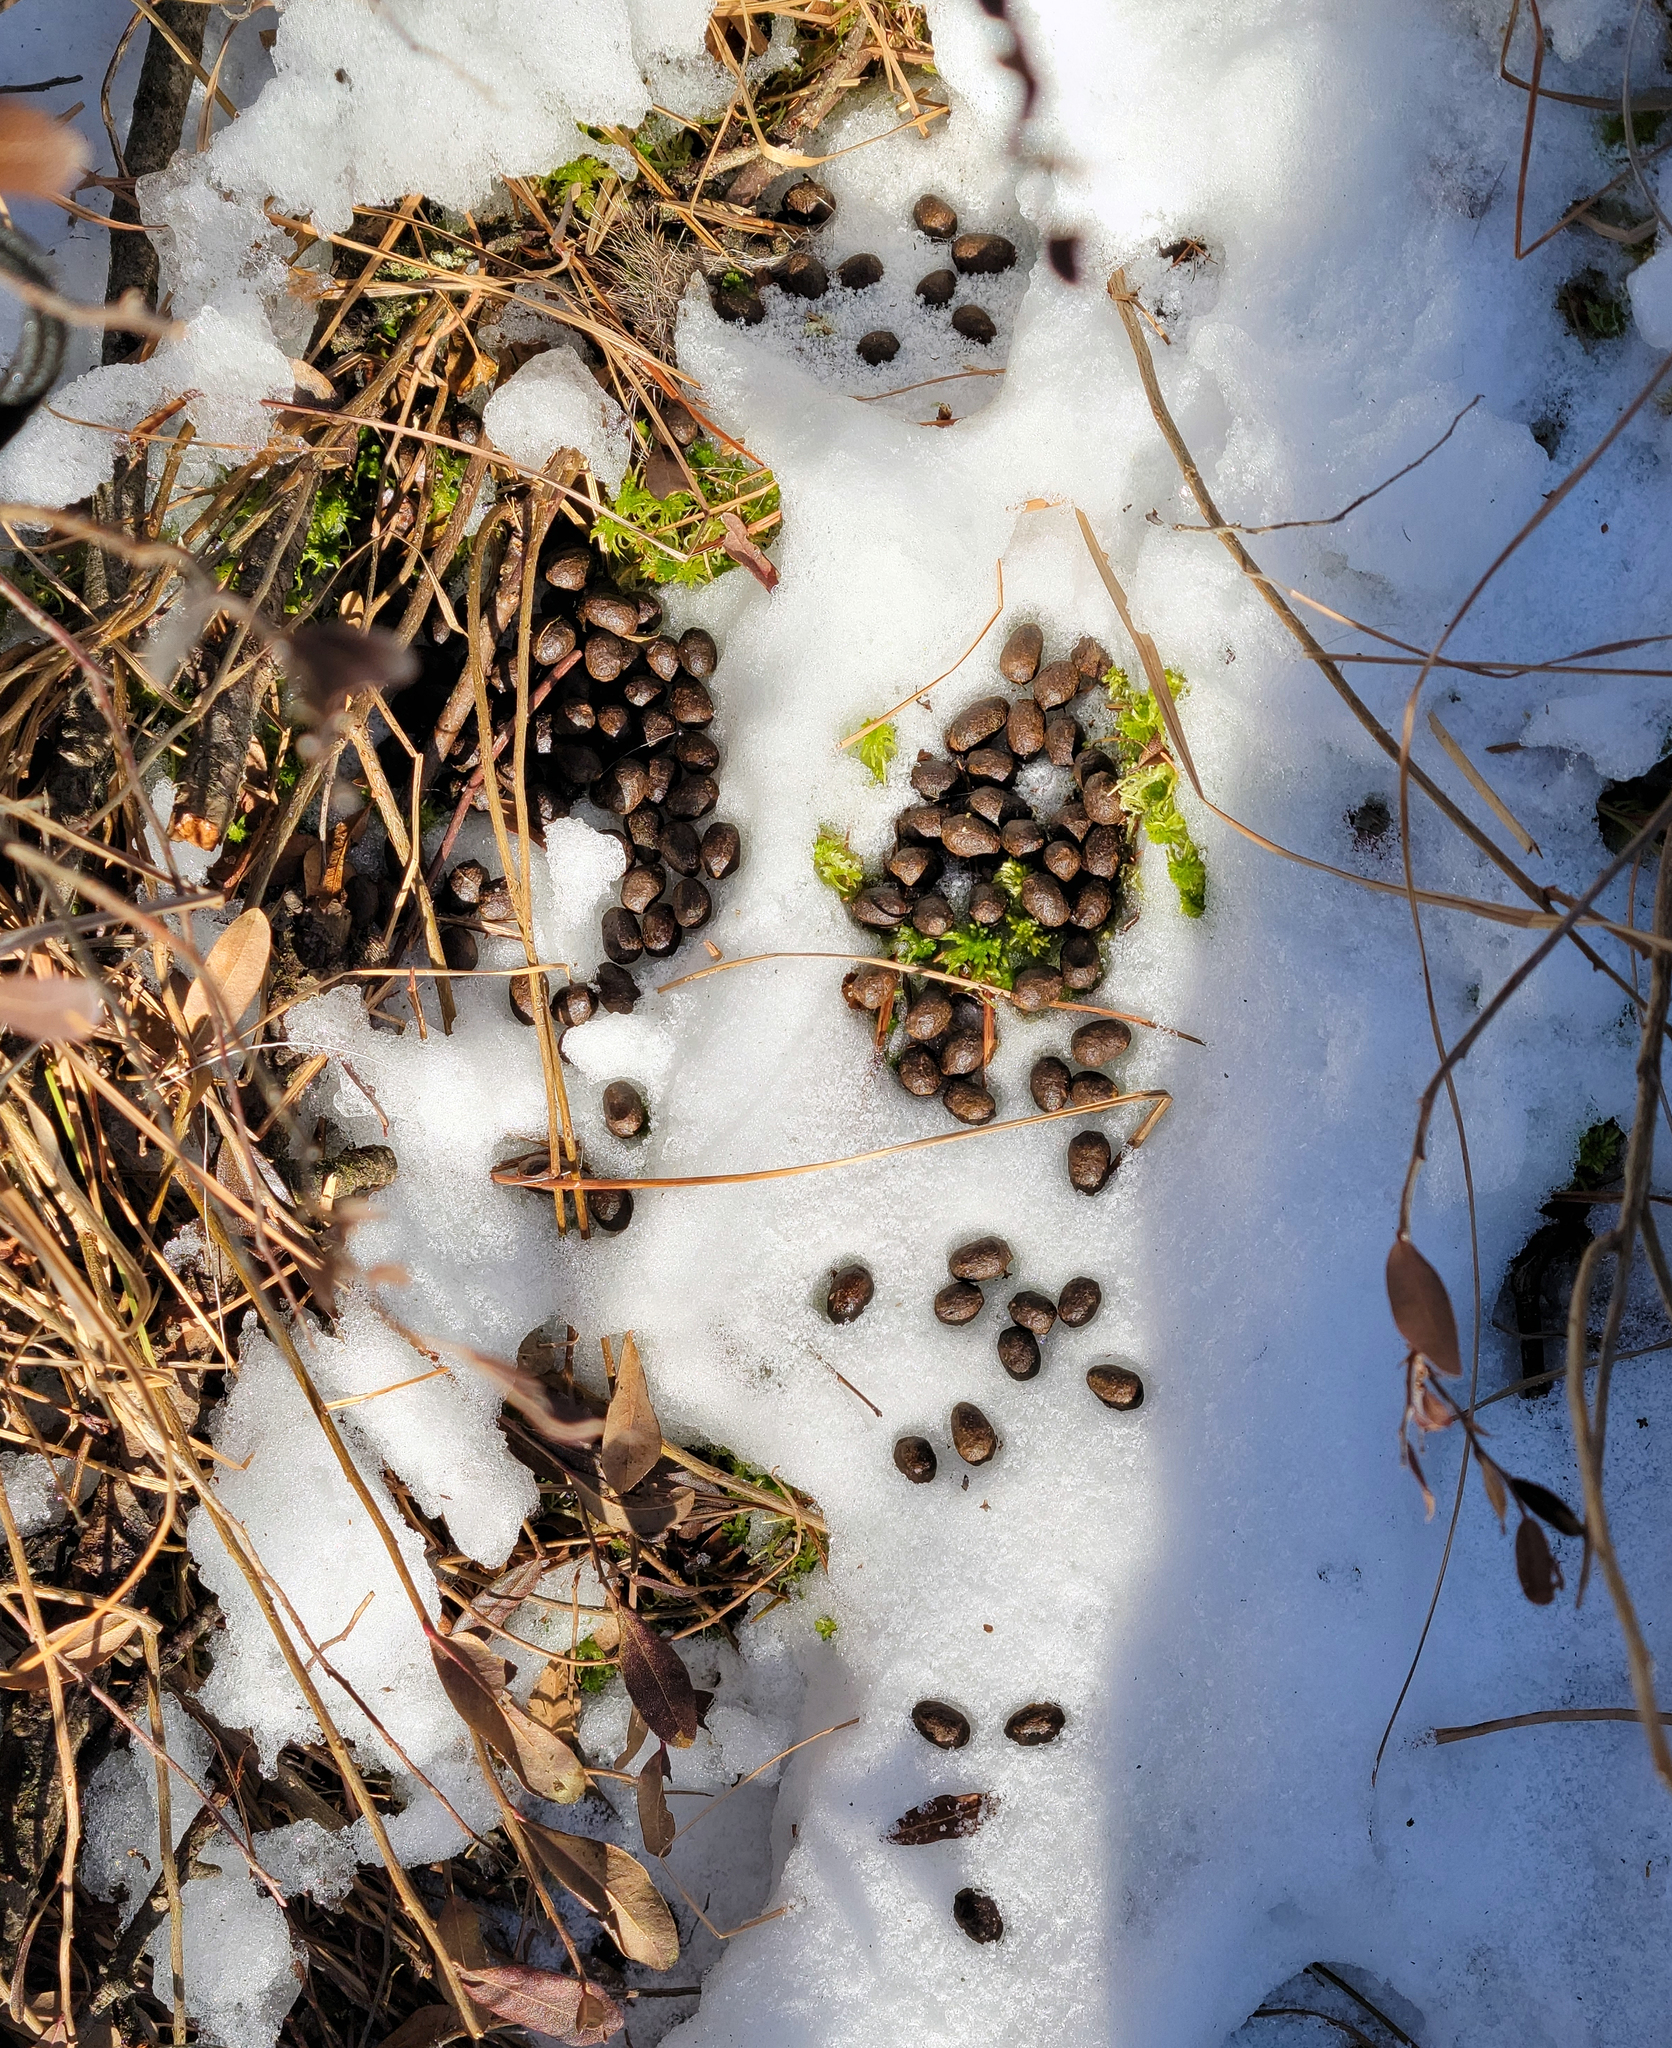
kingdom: Animalia
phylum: Chordata
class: Mammalia
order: Artiodactyla
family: Cervidae
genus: Odocoileus
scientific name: Odocoileus virginianus
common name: White-tailed deer
